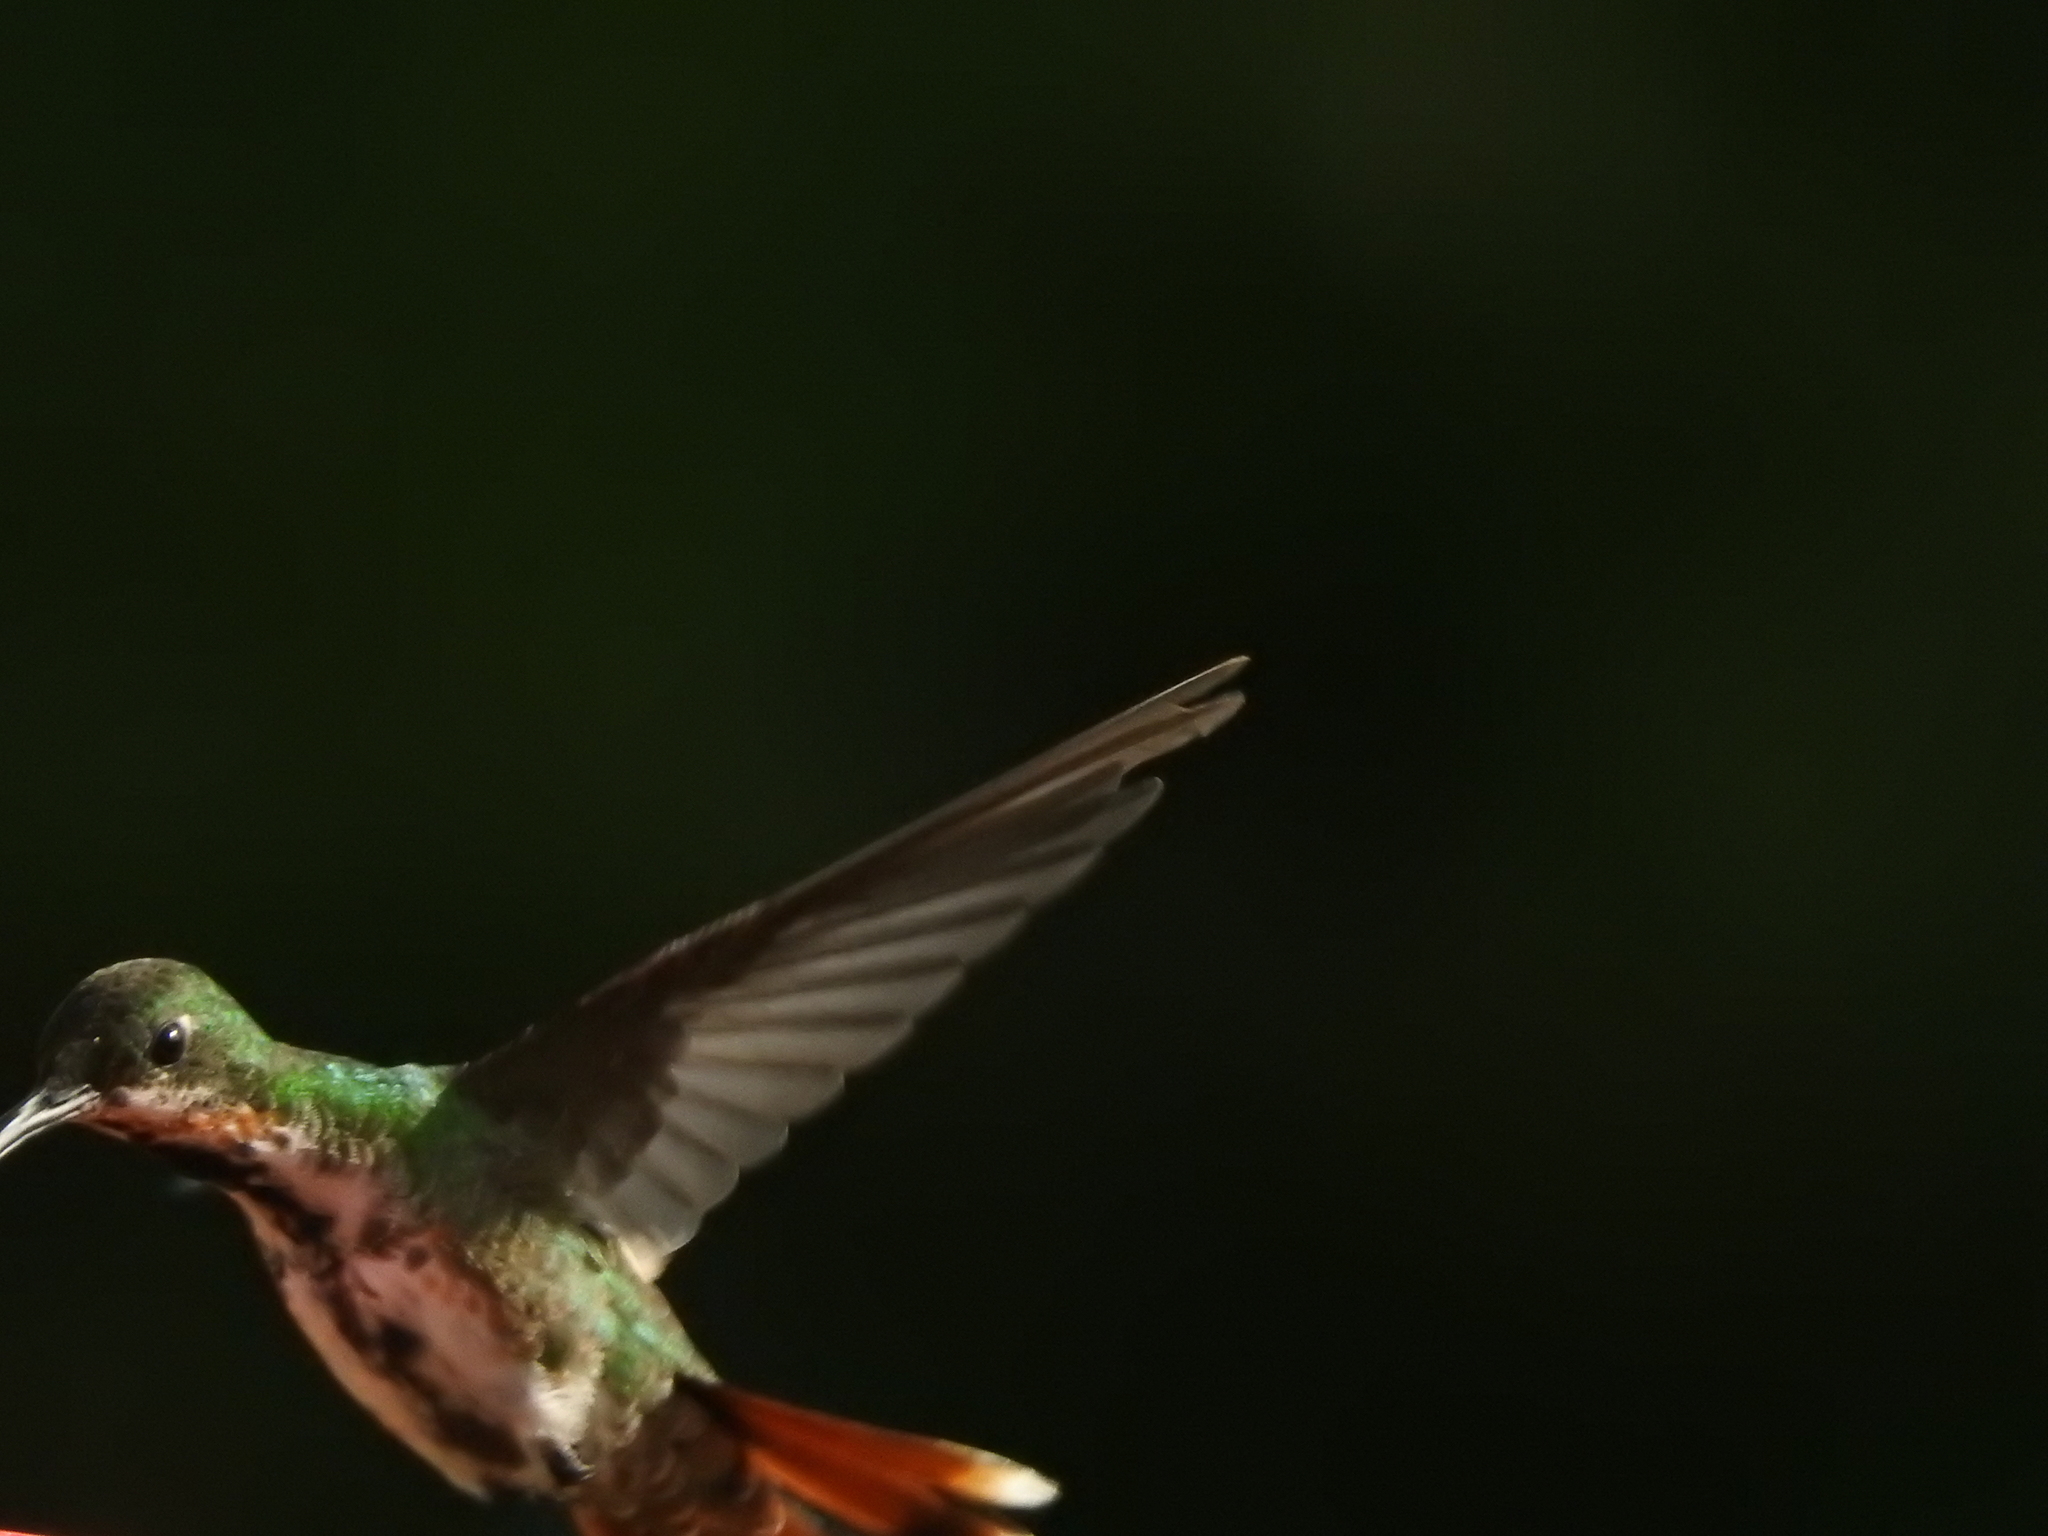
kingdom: Animalia
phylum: Chordata
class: Aves
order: Apodiformes
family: Trochilidae
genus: Anthracothorax
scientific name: Anthracothorax prevostii
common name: Green-breasted mango
